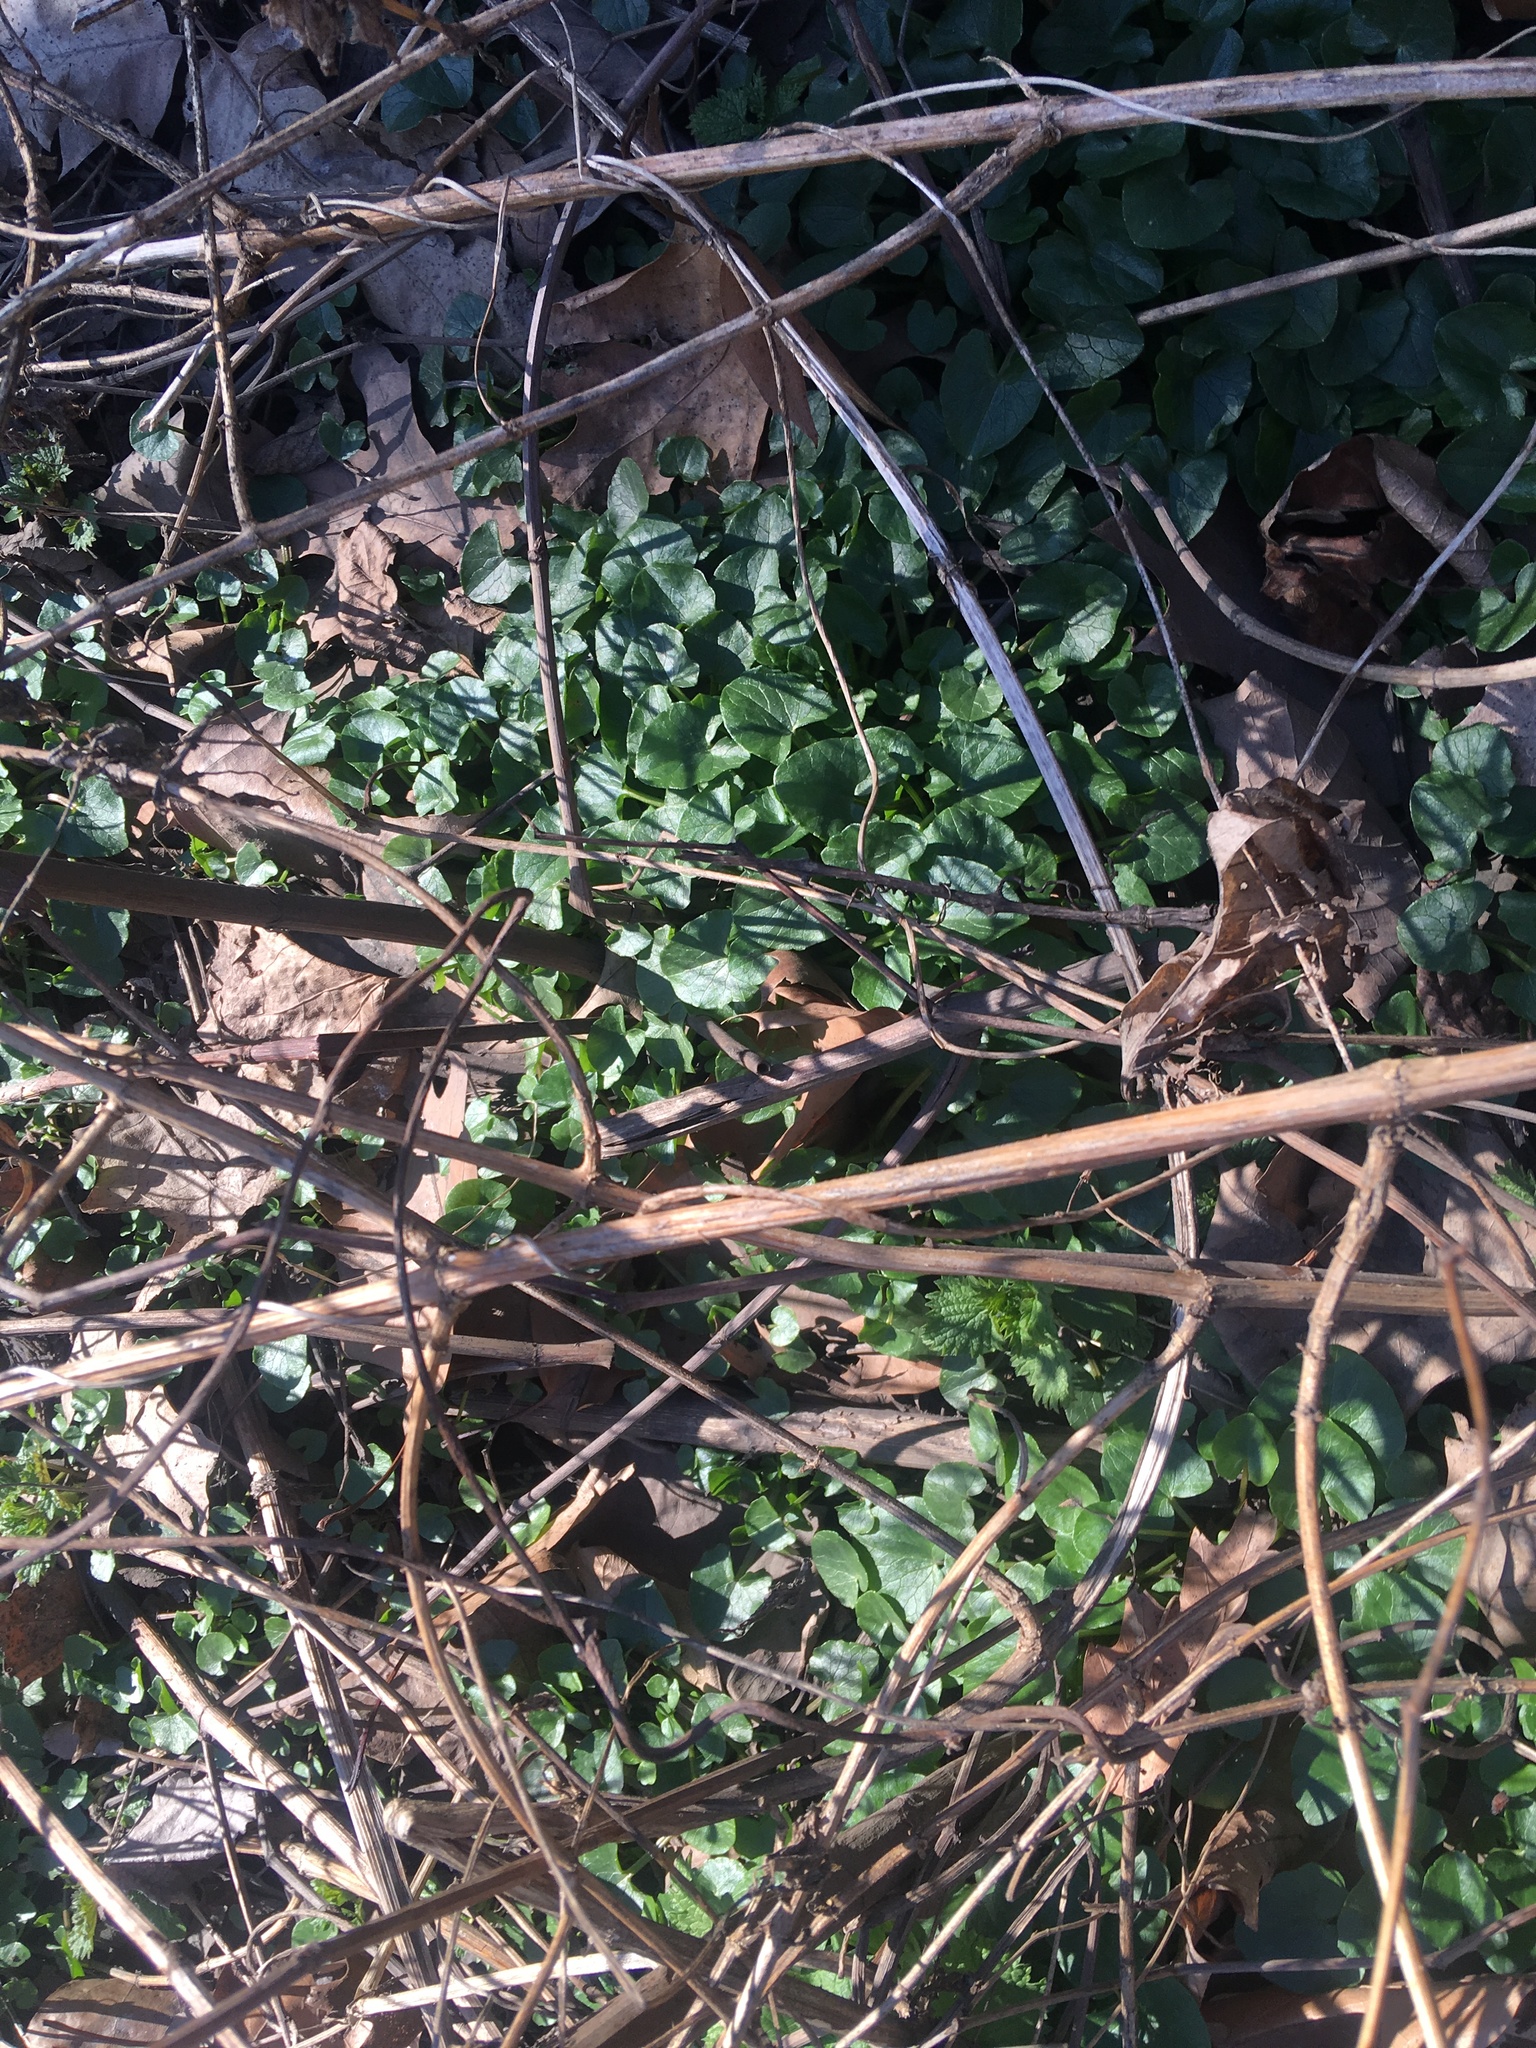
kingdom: Plantae
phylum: Tracheophyta
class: Magnoliopsida
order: Ranunculales
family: Ranunculaceae
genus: Ficaria
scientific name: Ficaria verna
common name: Lesser celandine
